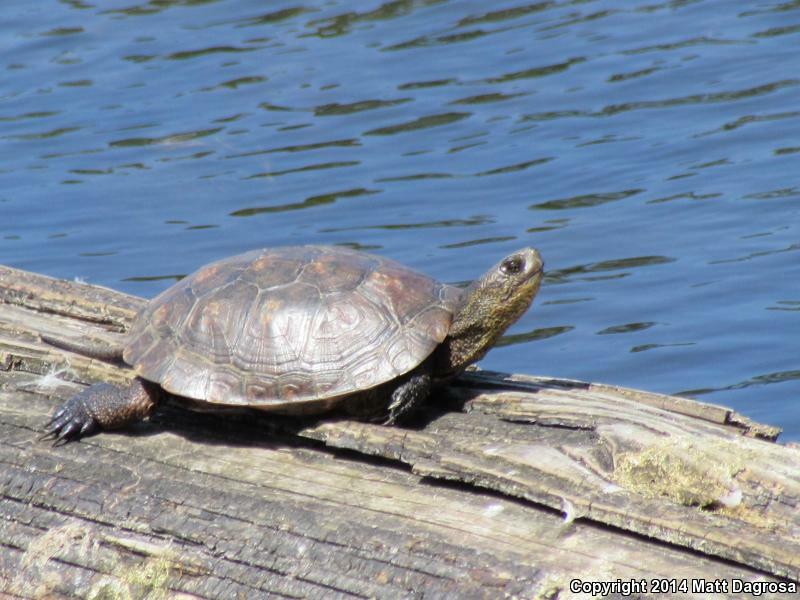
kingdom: Animalia
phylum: Chordata
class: Testudines
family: Emydidae
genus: Actinemys
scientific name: Actinemys marmorata
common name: Western pond turtle
